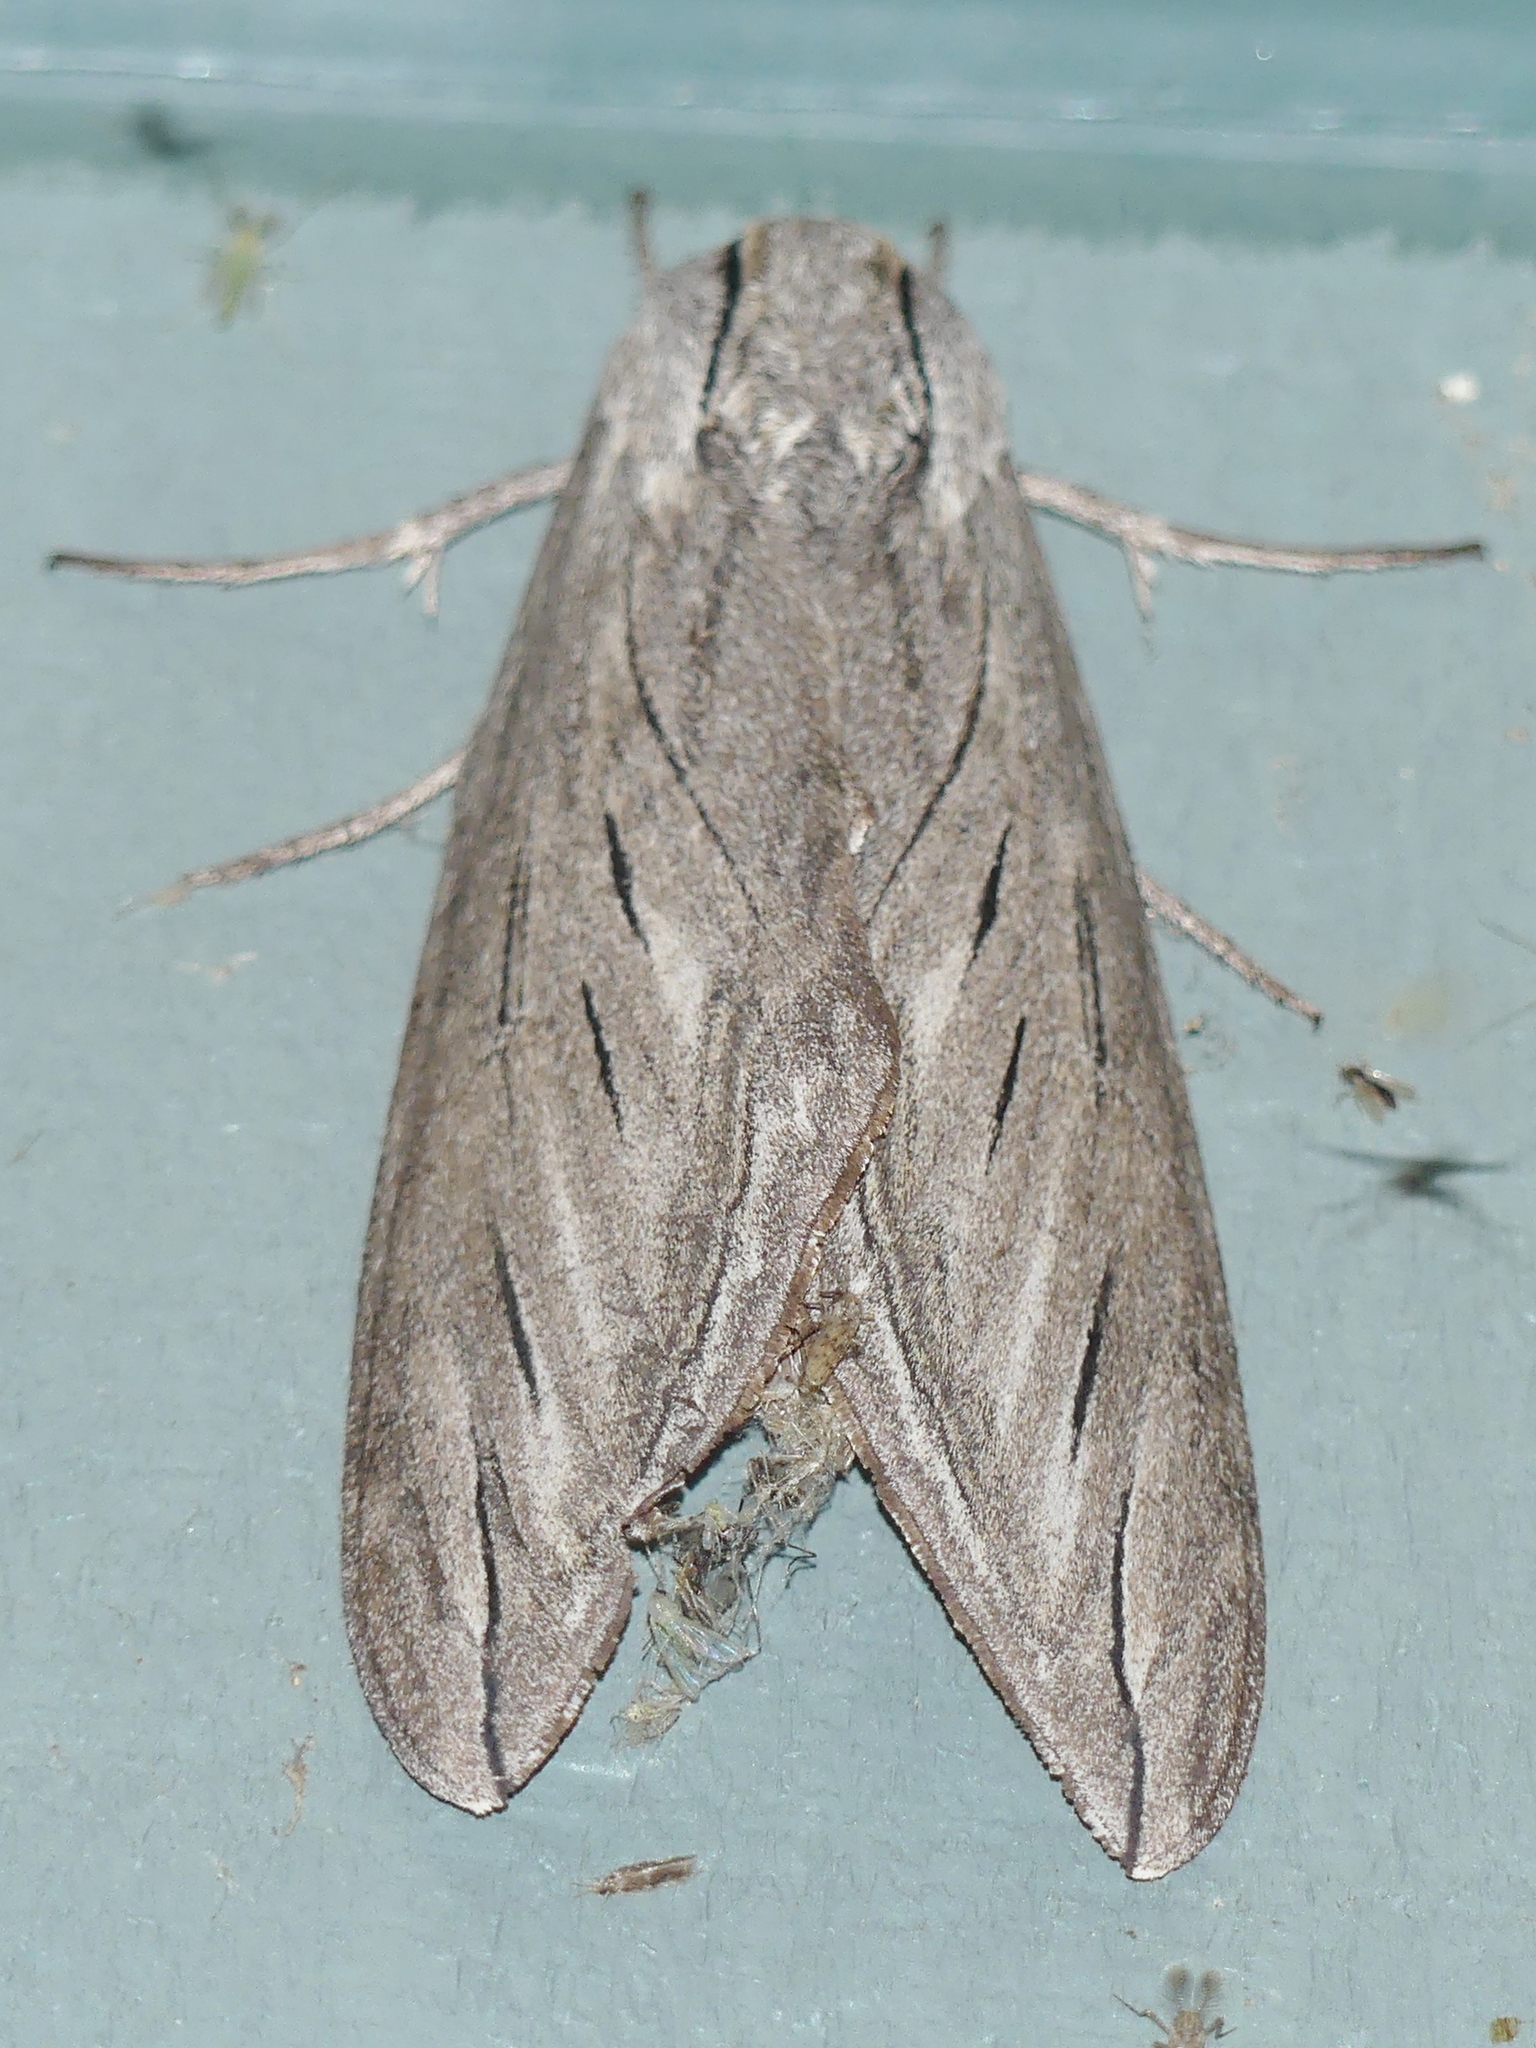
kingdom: Animalia
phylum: Arthropoda
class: Insecta
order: Lepidoptera
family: Sphingidae
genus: Sphinx
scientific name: Sphinx chersis
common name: Great ash sphinx
